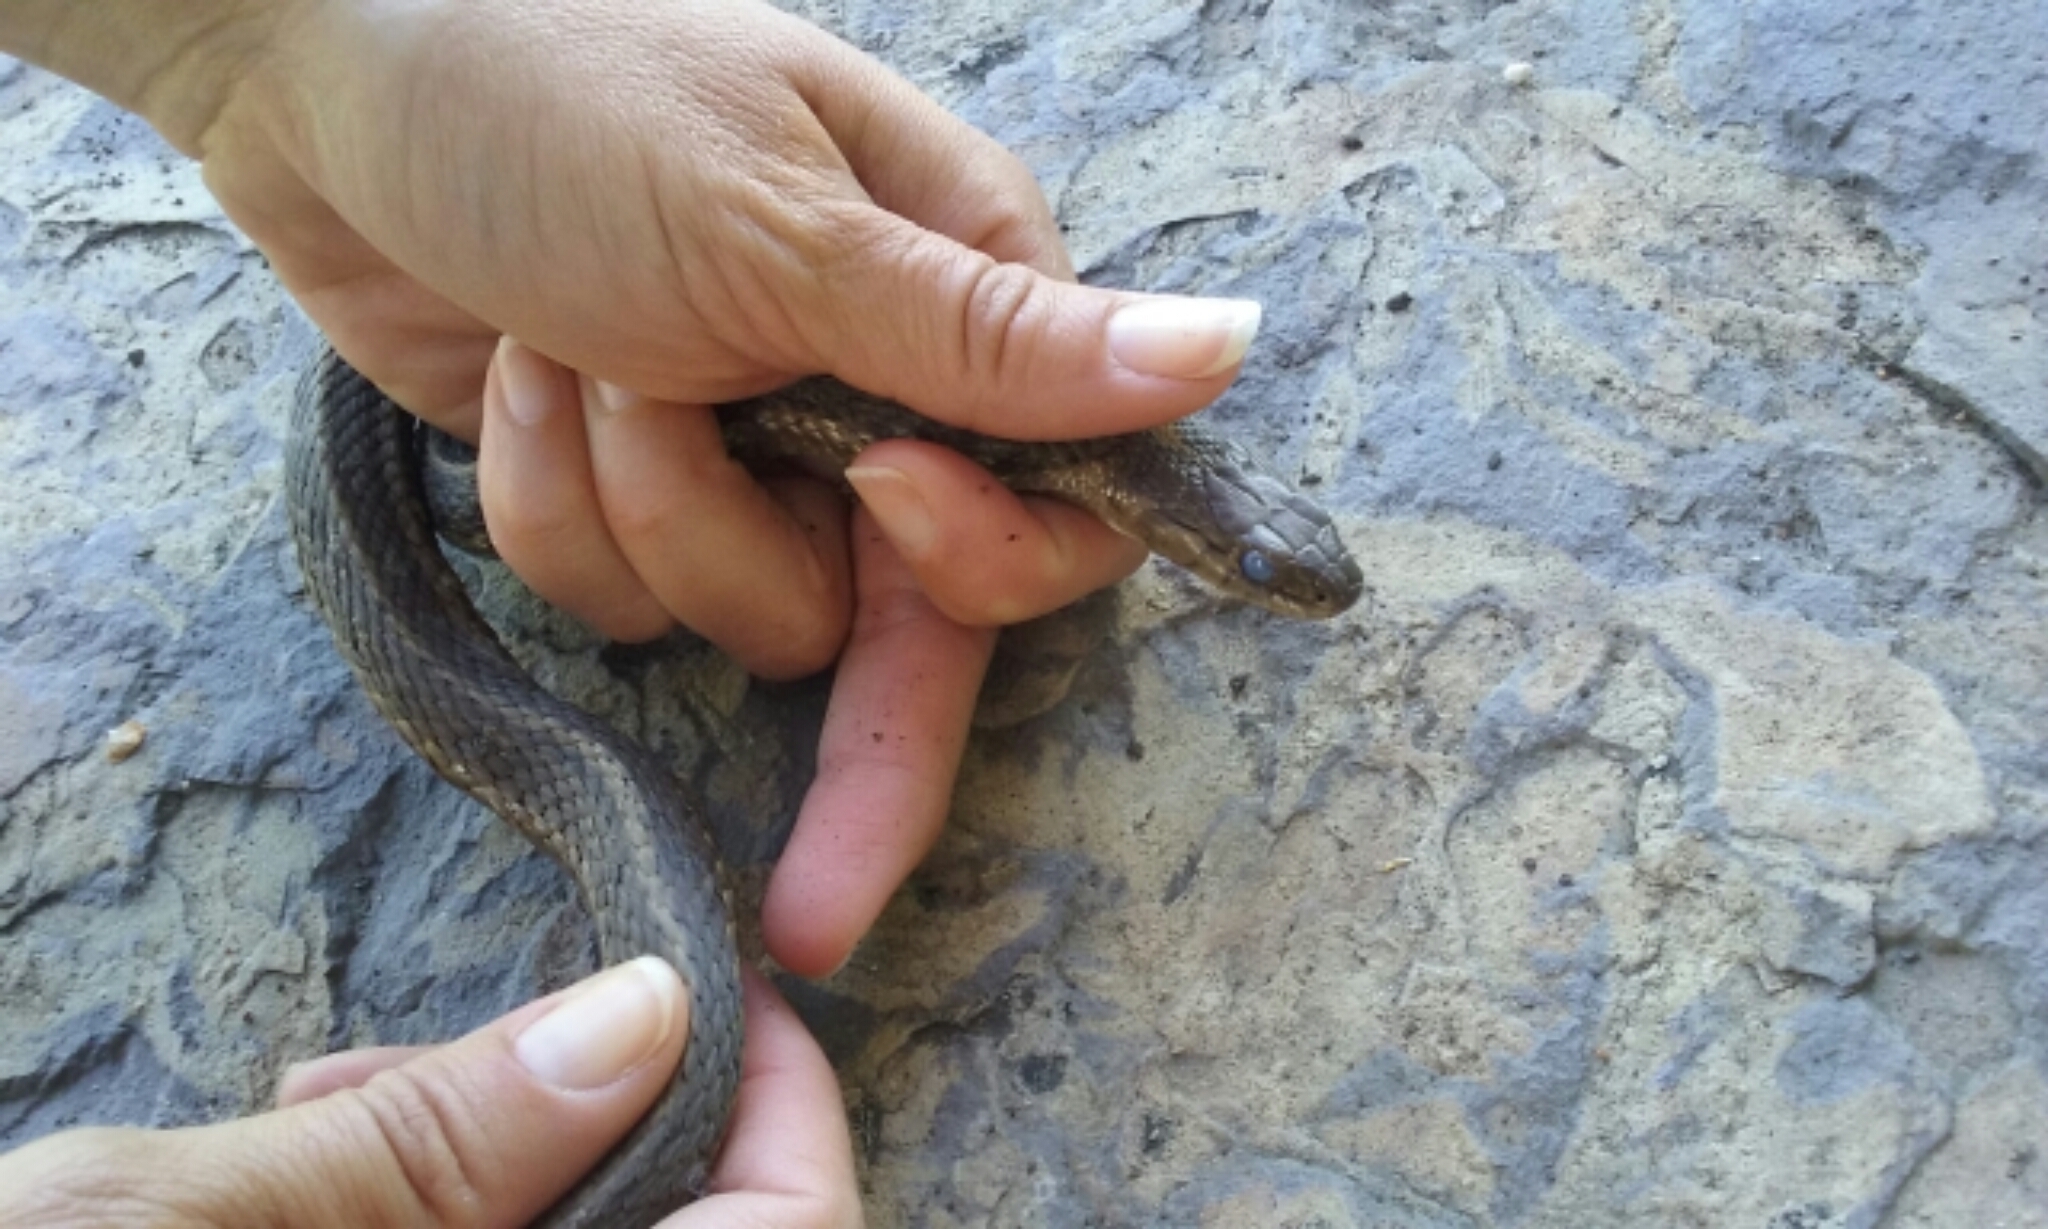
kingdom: Animalia
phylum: Chordata
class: Squamata
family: Colubridae
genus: Thamnophis
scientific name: Thamnophis elegans
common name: Western terrestrial garter snake
